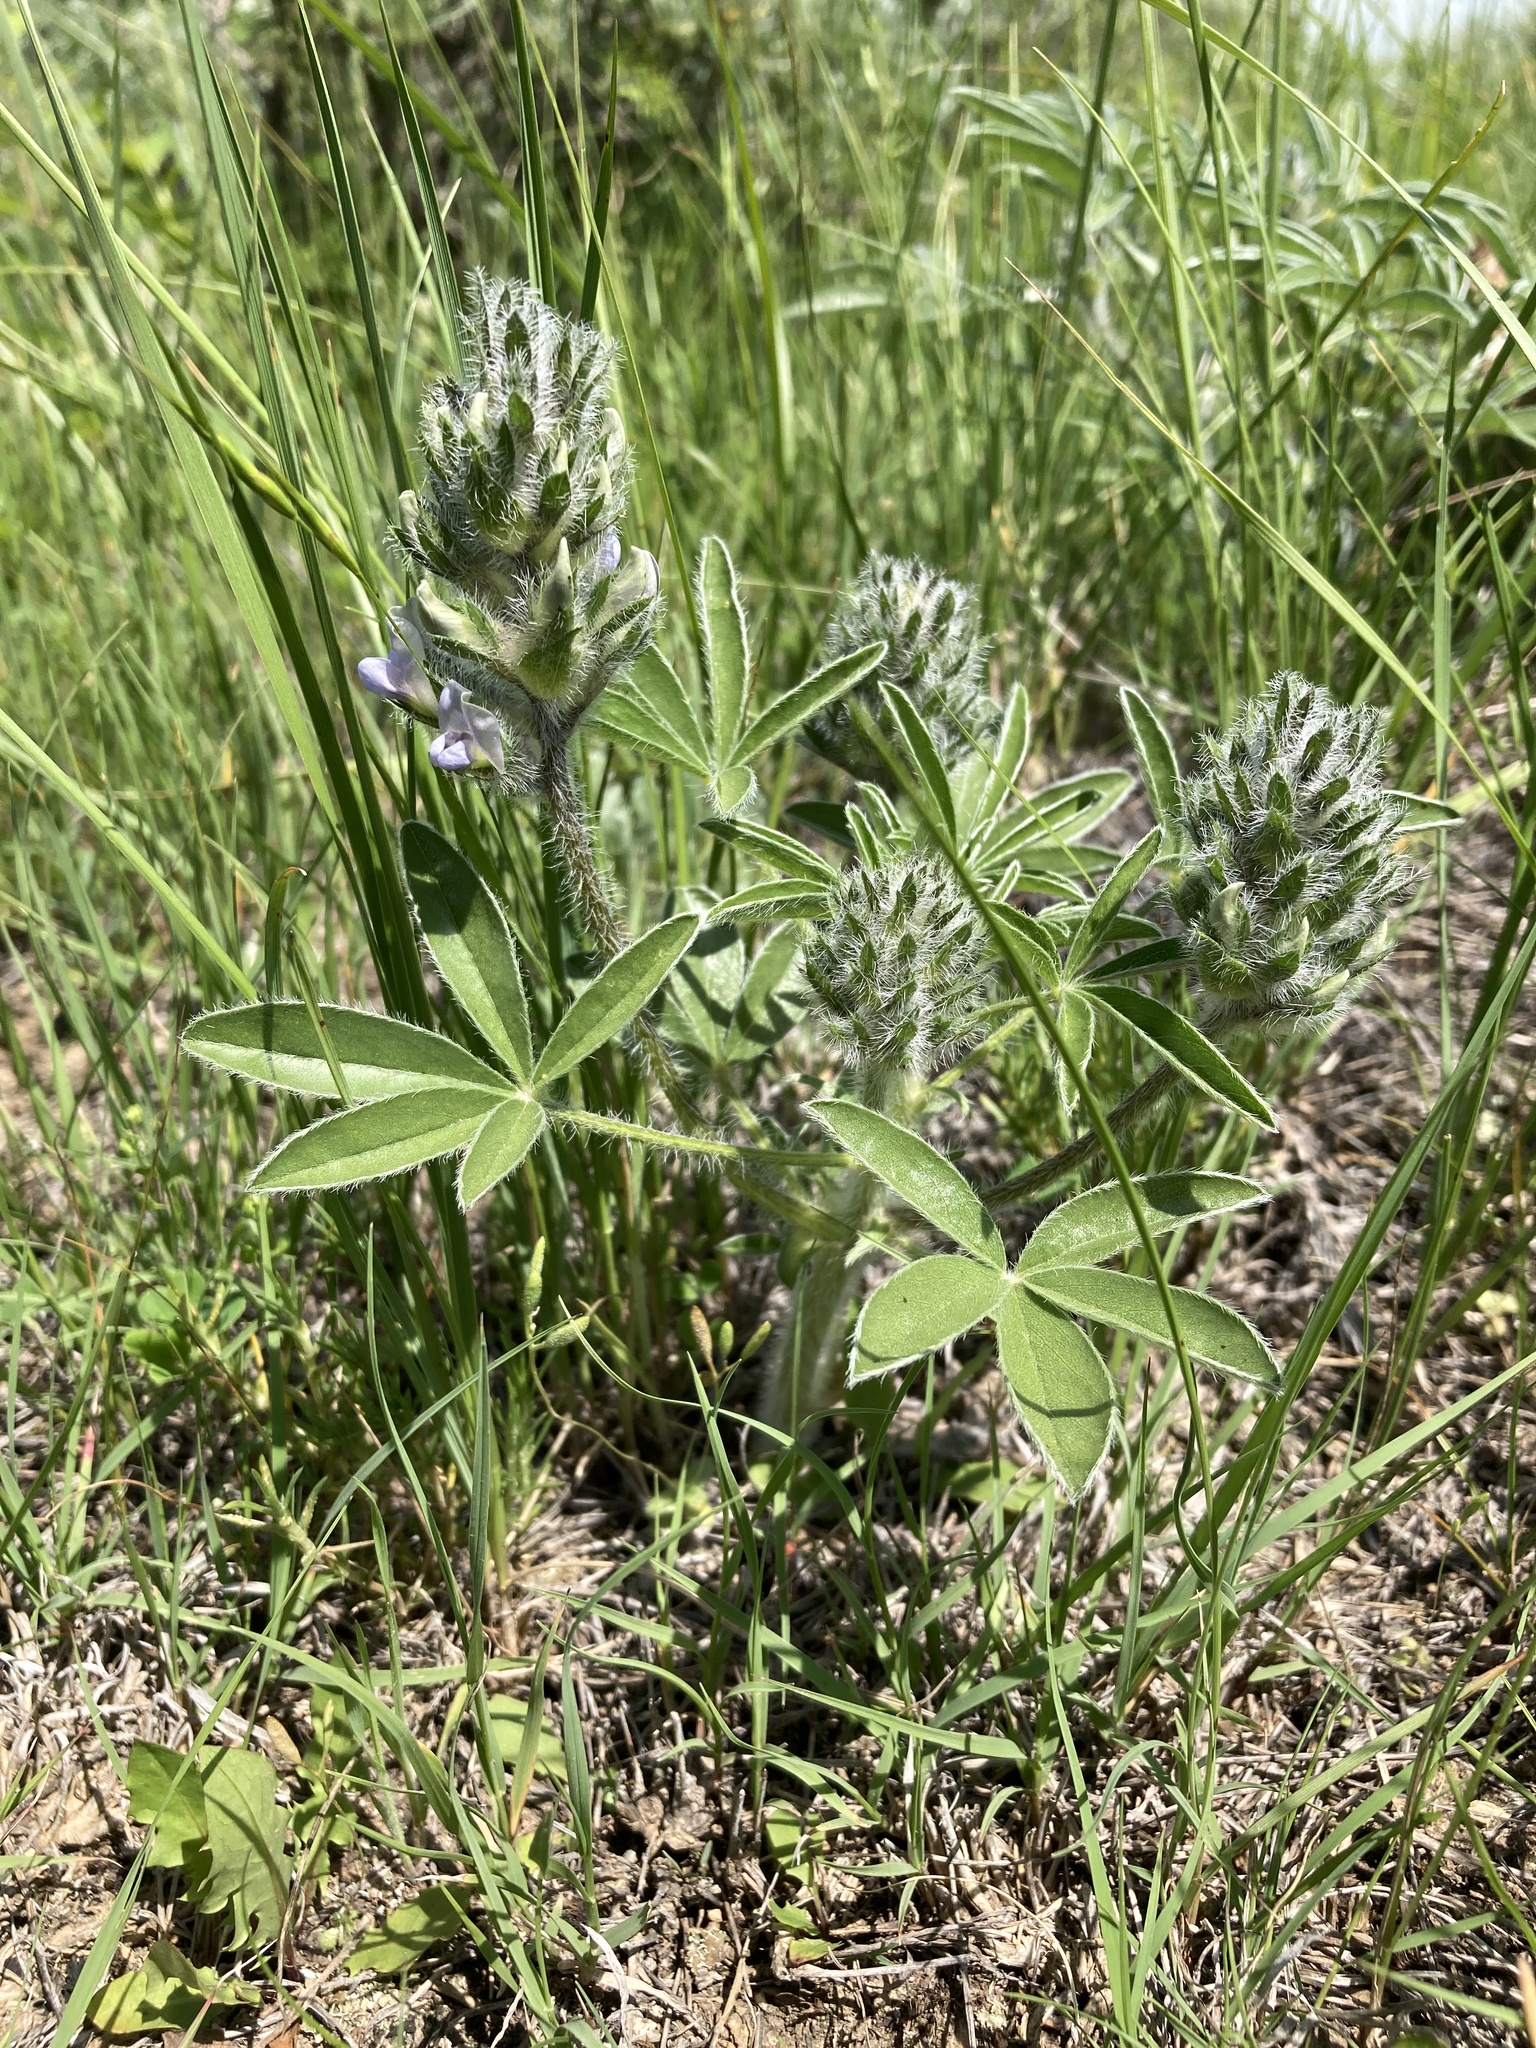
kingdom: Plantae
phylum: Tracheophyta
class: Magnoliopsida
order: Fabales
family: Fabaceae
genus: Pediomelum
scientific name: Pediomelum esculentum
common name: Indian-turnip
